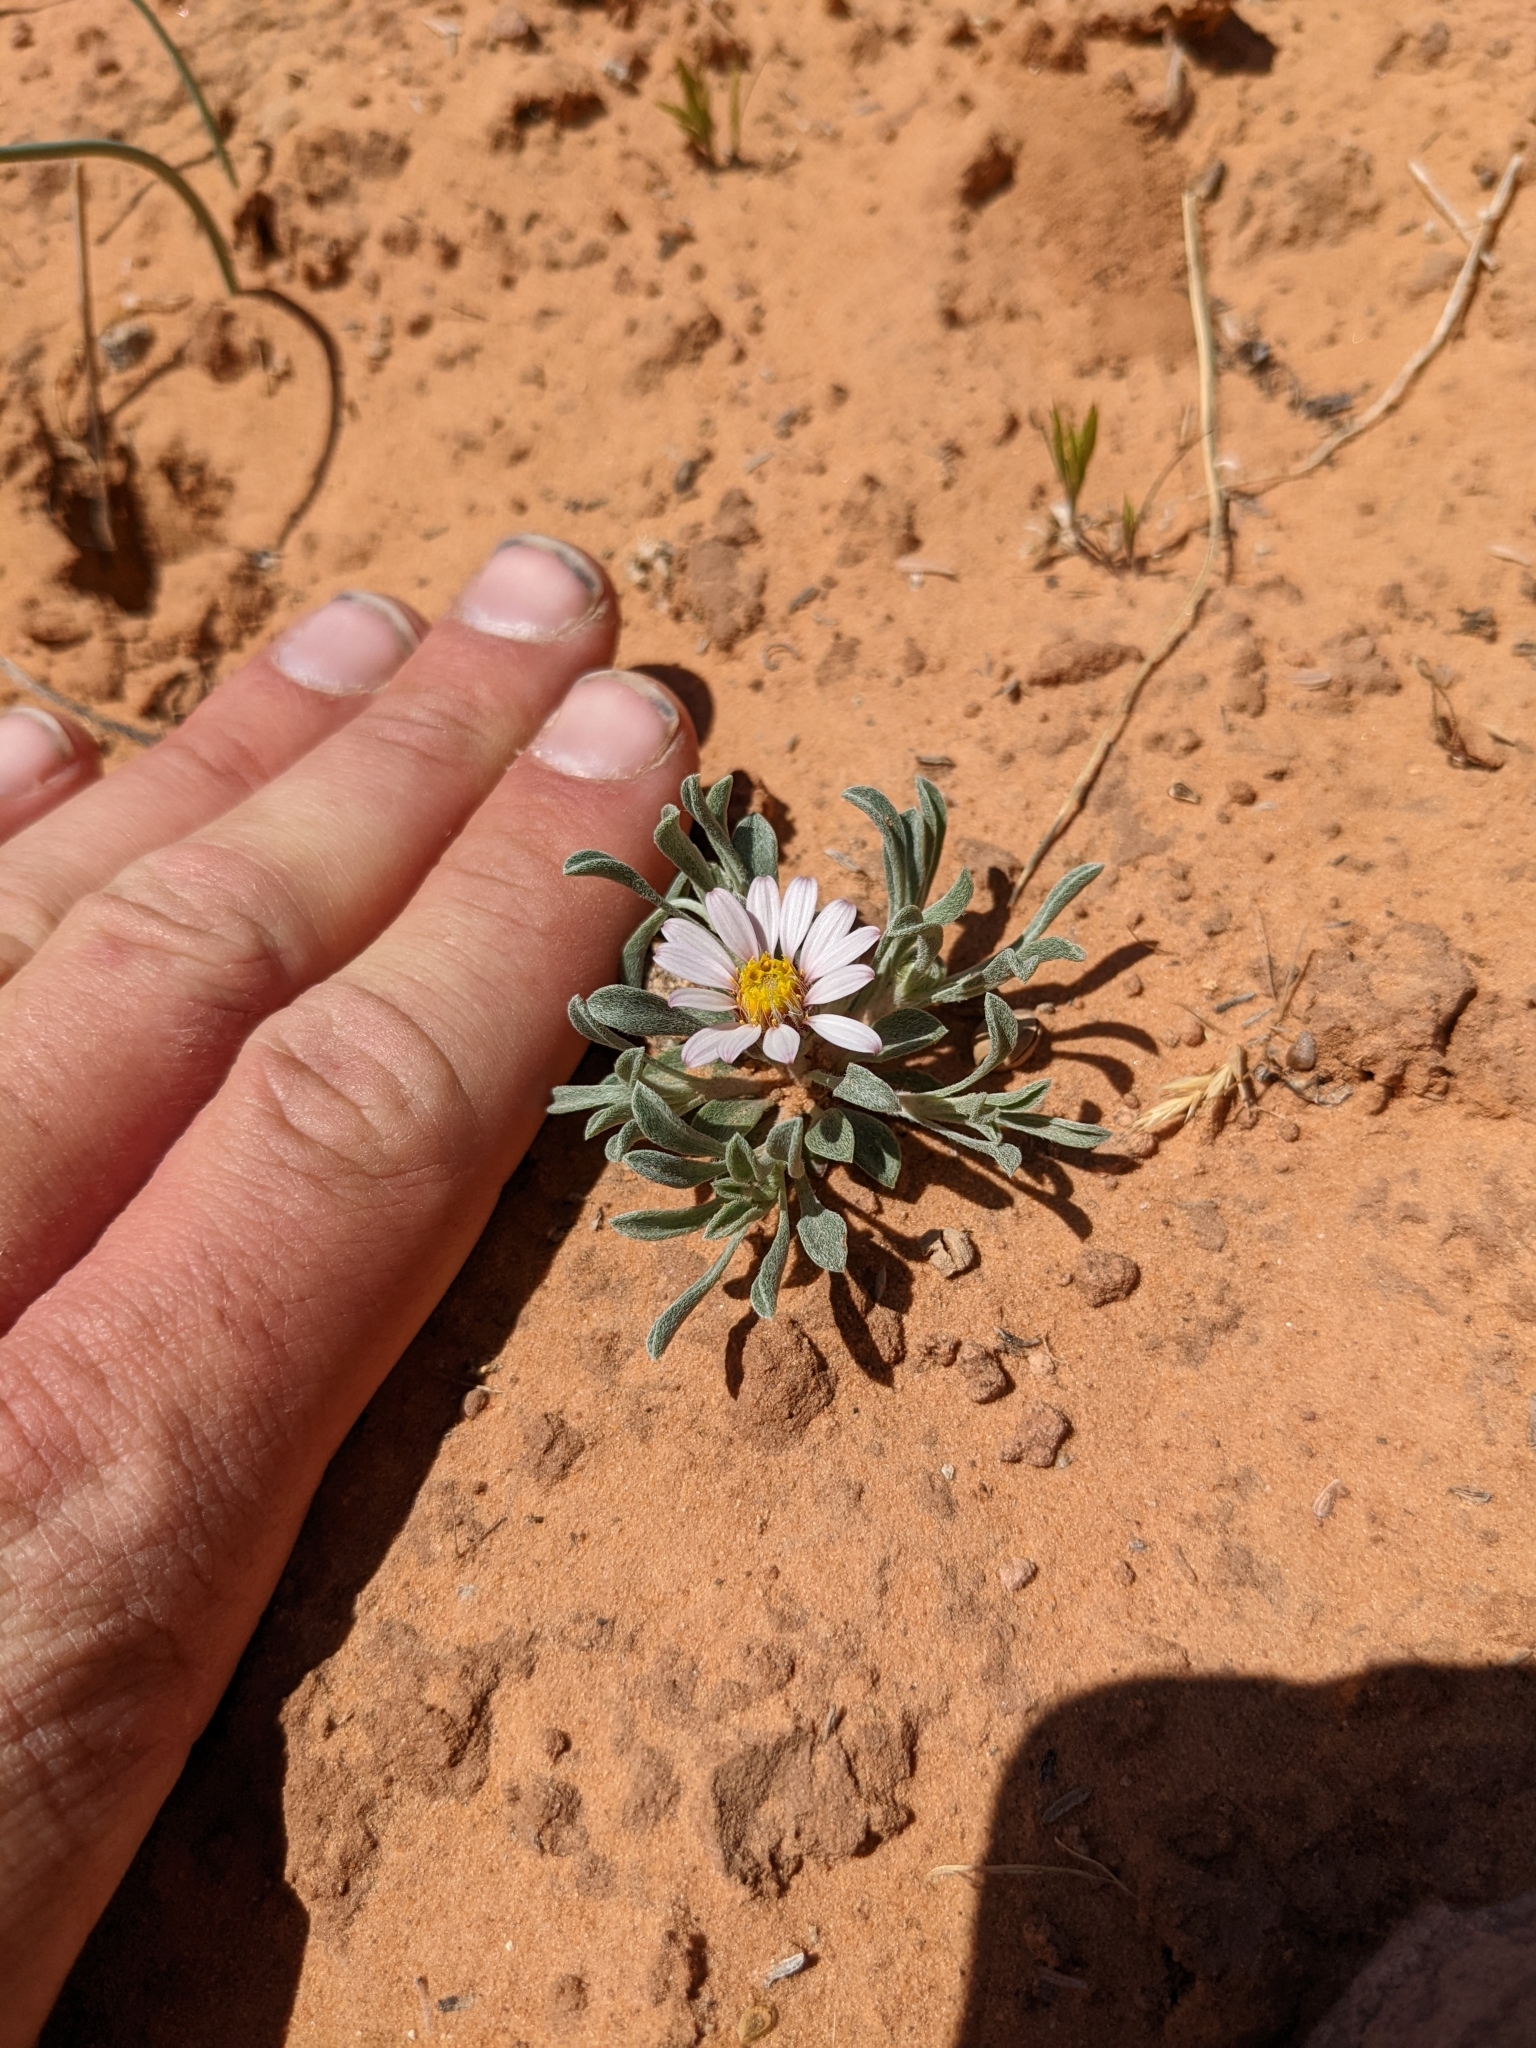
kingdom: Plantae
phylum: Tracheophyta
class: Magnoliopsida
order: Asterales
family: Asteraceae
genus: Townsendia
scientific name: Townsendia incana
